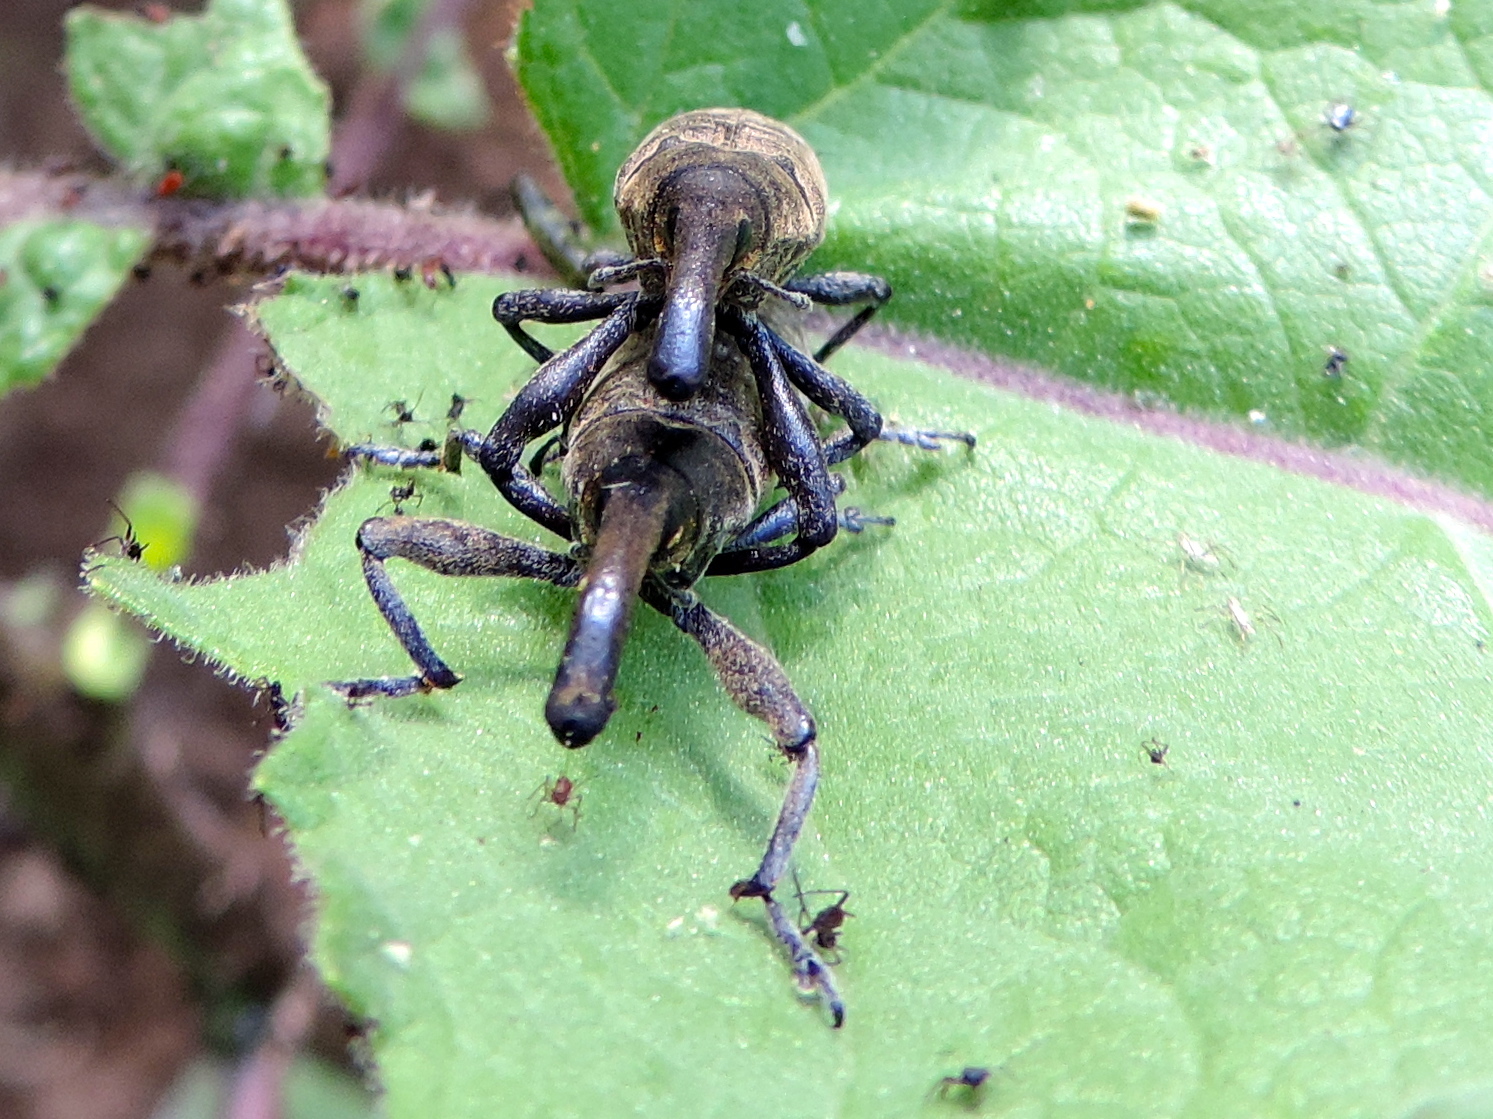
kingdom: Animalia
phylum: Arthropoda
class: Insecta
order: Coleoptera
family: Curculionidae
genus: Lixus
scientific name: Lixus
